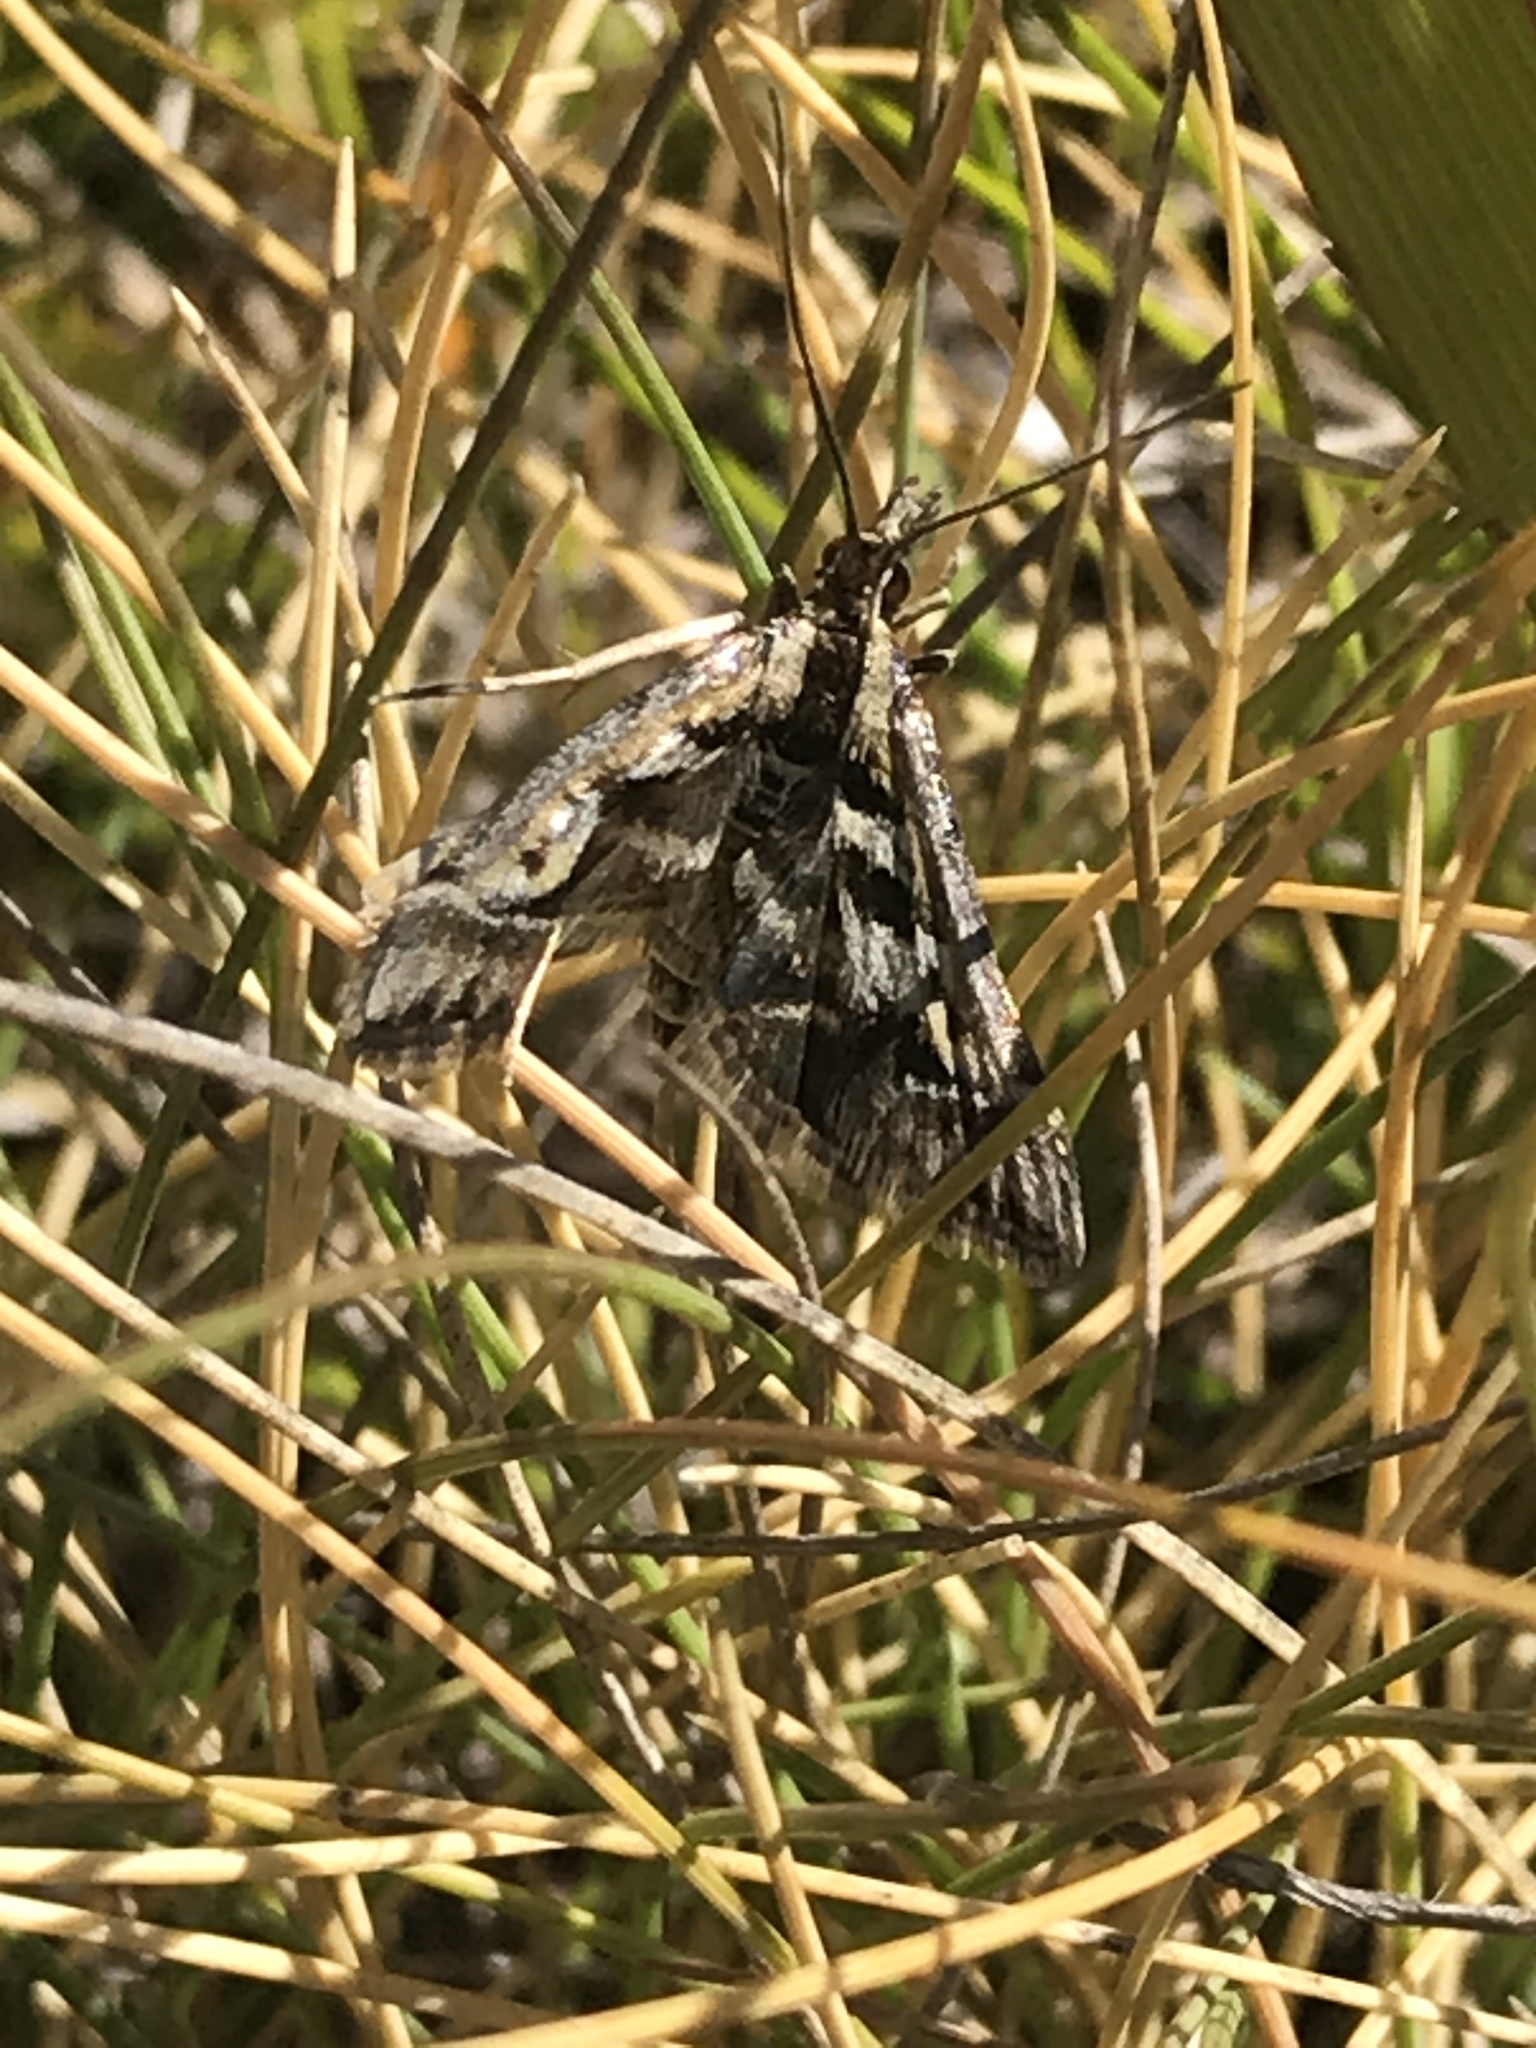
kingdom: Animalia
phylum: Arthropoda
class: Insecta
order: Lepidoptera
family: Crambidae
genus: Diasemia
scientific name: Diasemia grammalis
